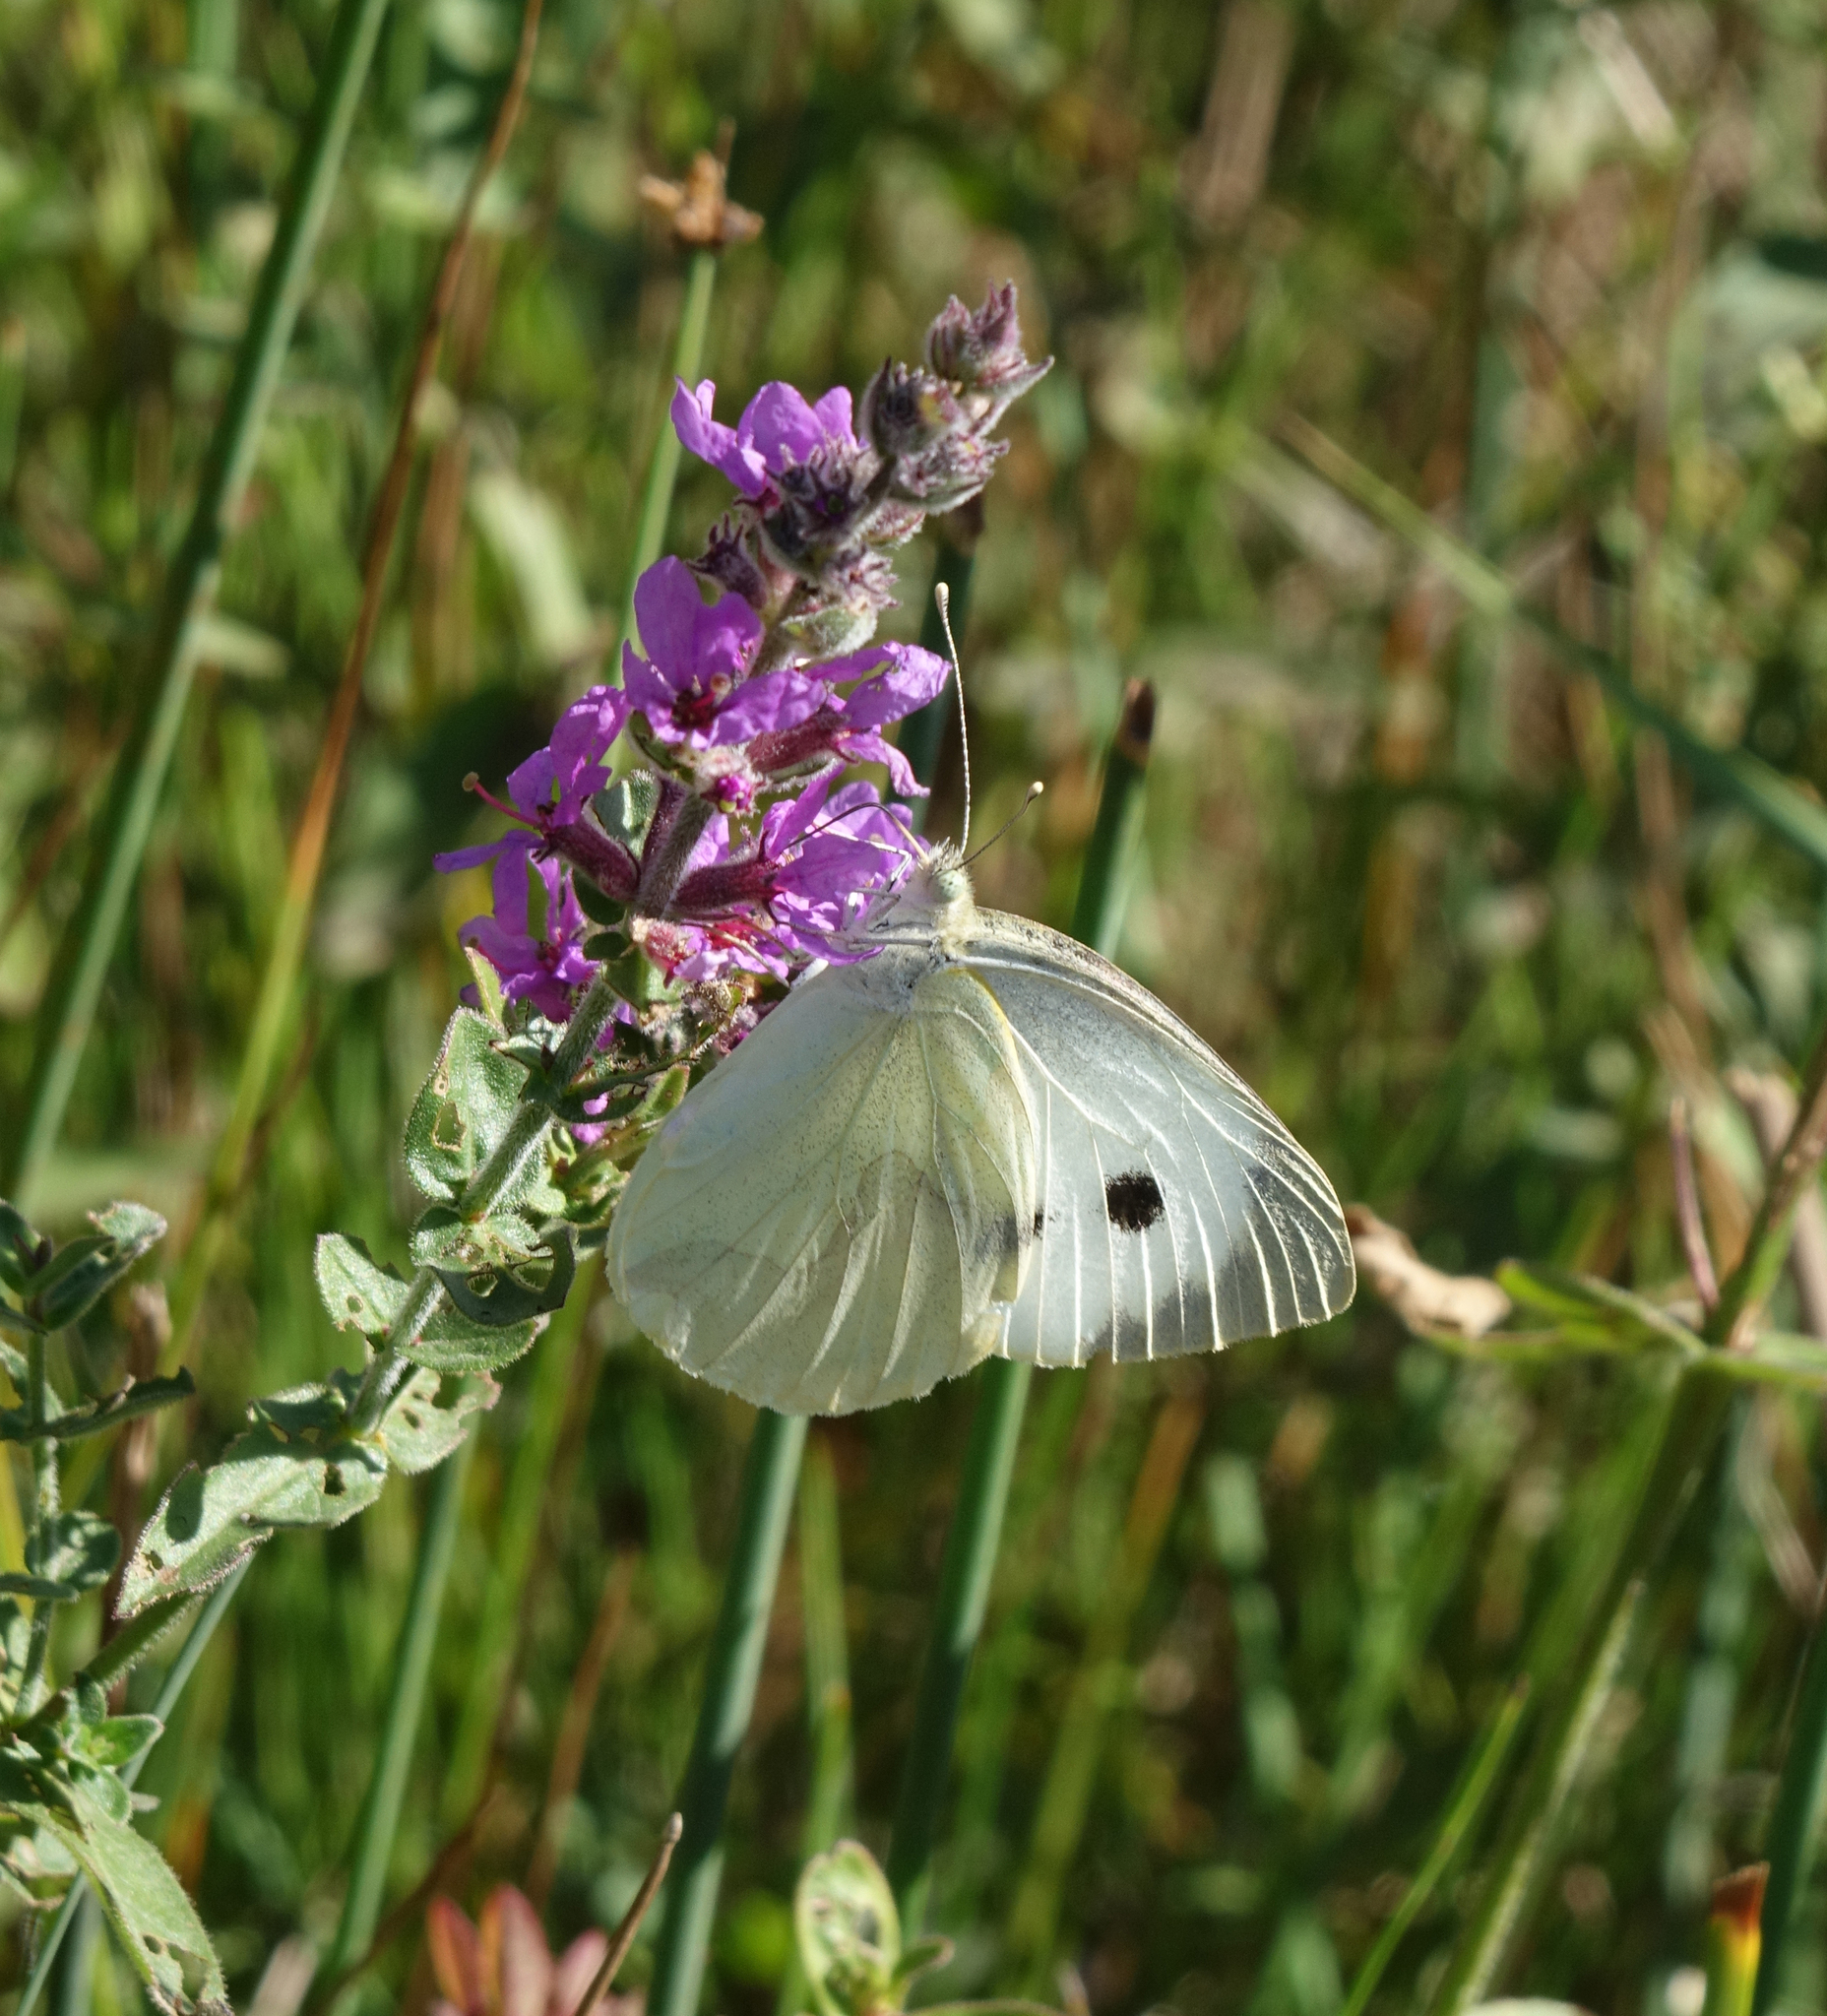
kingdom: Animalia
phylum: Arthropoda
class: Insecta
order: Lepidoptera
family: Pieridae
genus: Pieris
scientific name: Pieris brassicae
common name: Large white
